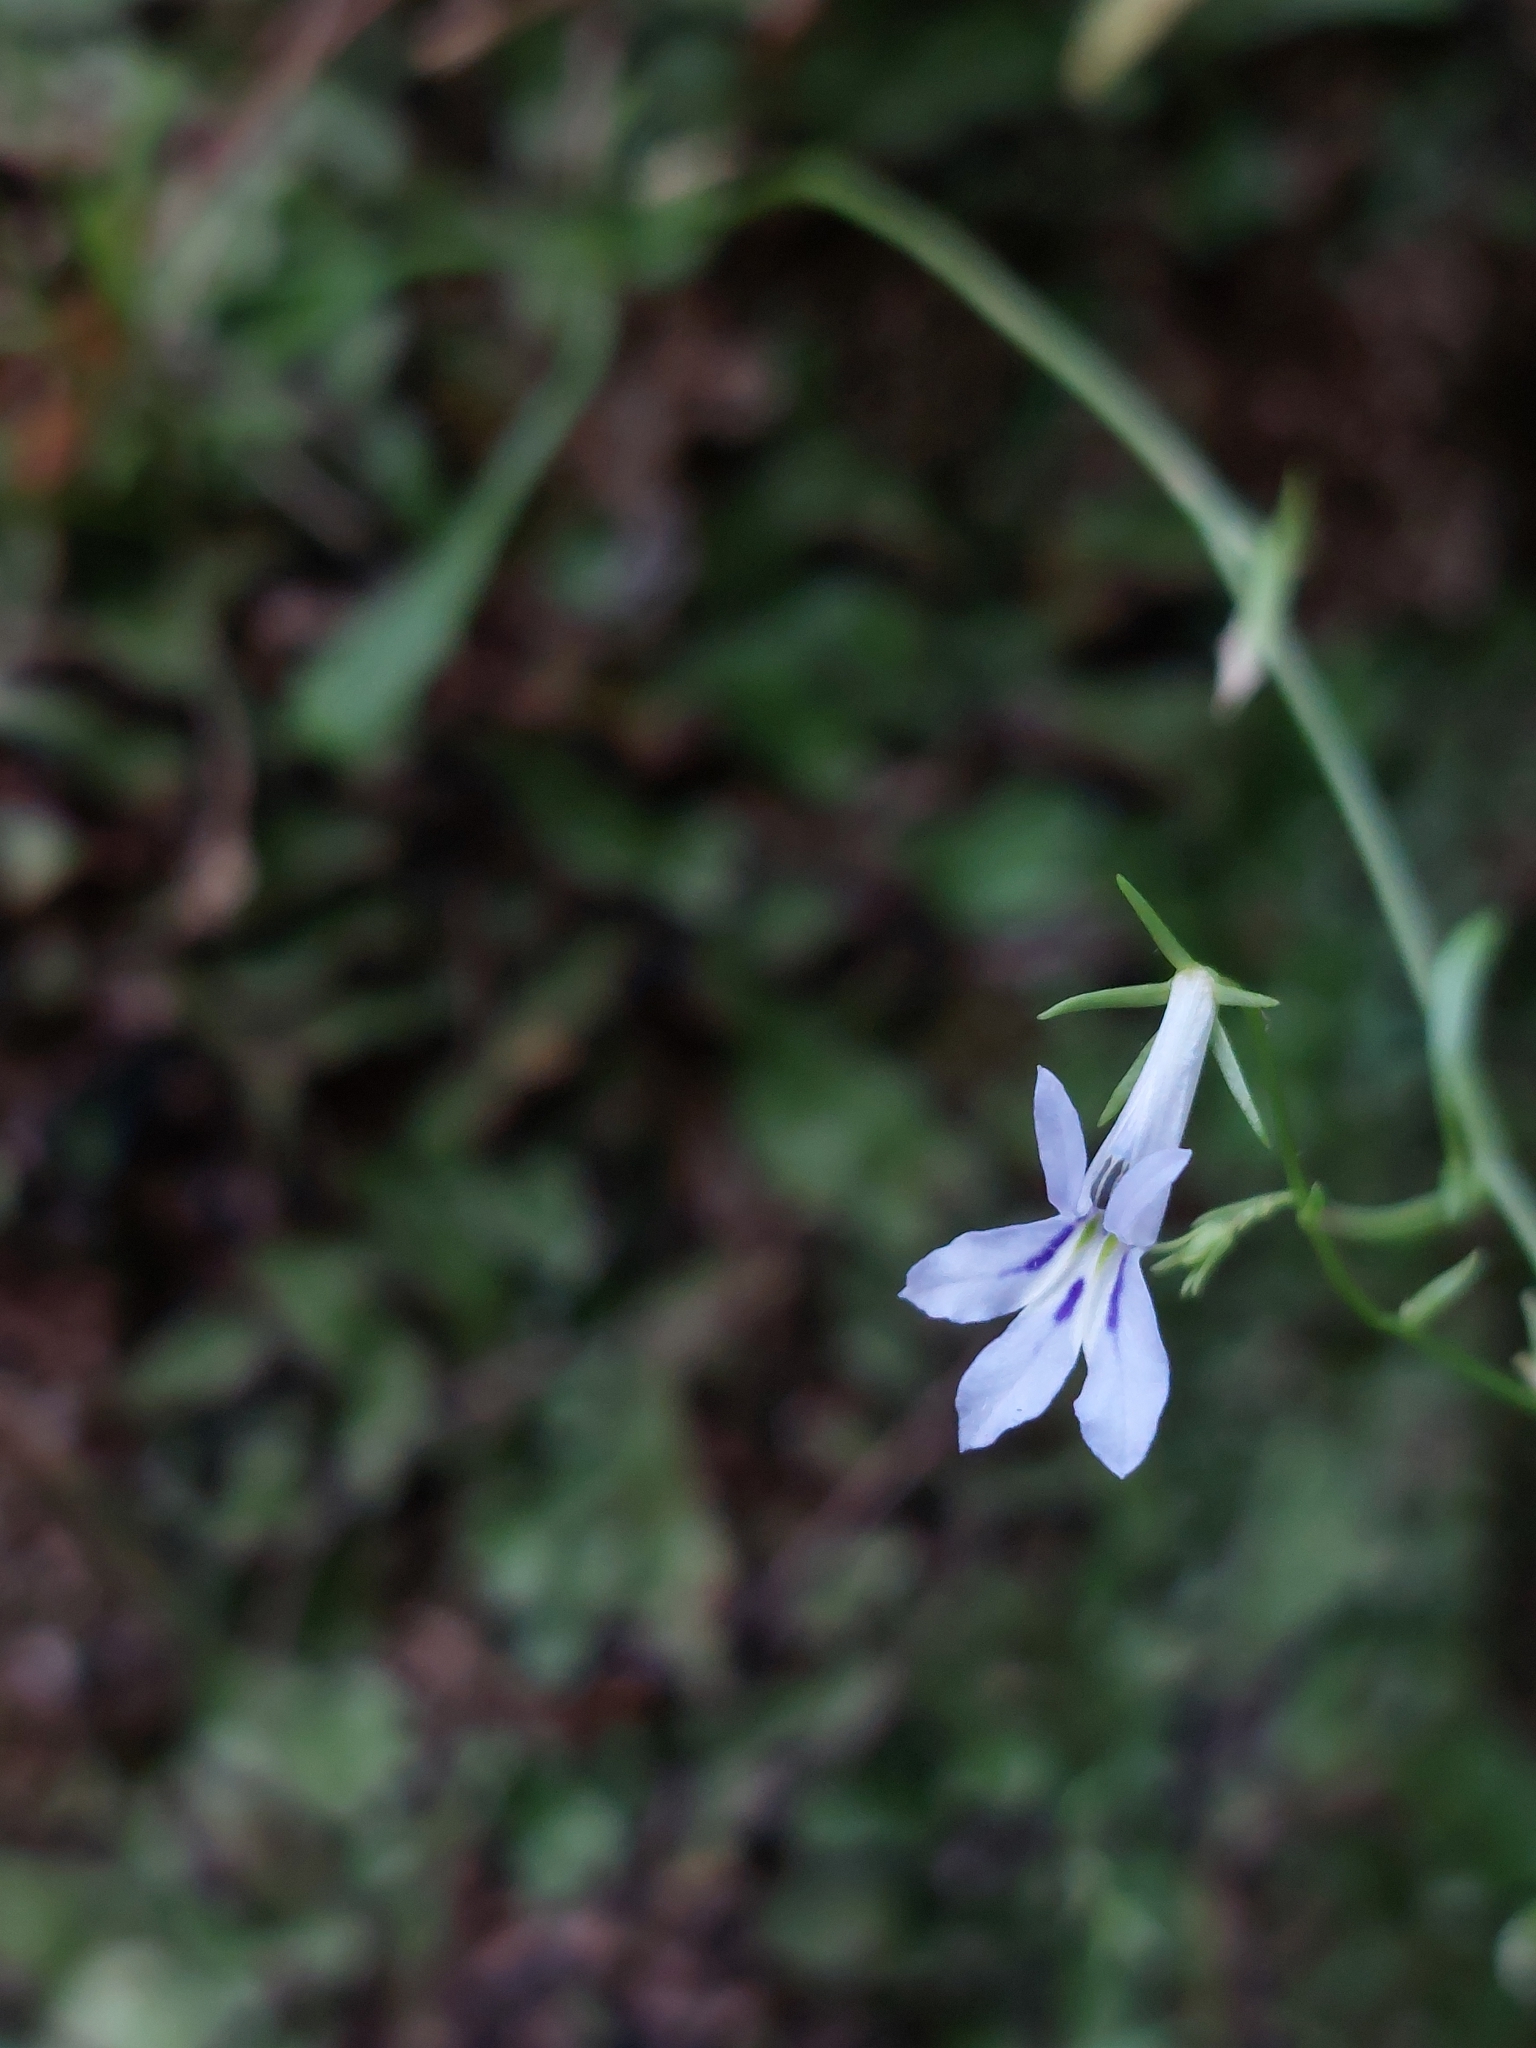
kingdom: Plantae
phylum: Tracheophyta
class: Magnoliopsida
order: Asterales
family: Campanulaceae
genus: Lobelia
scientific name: Lobelia flaccida
